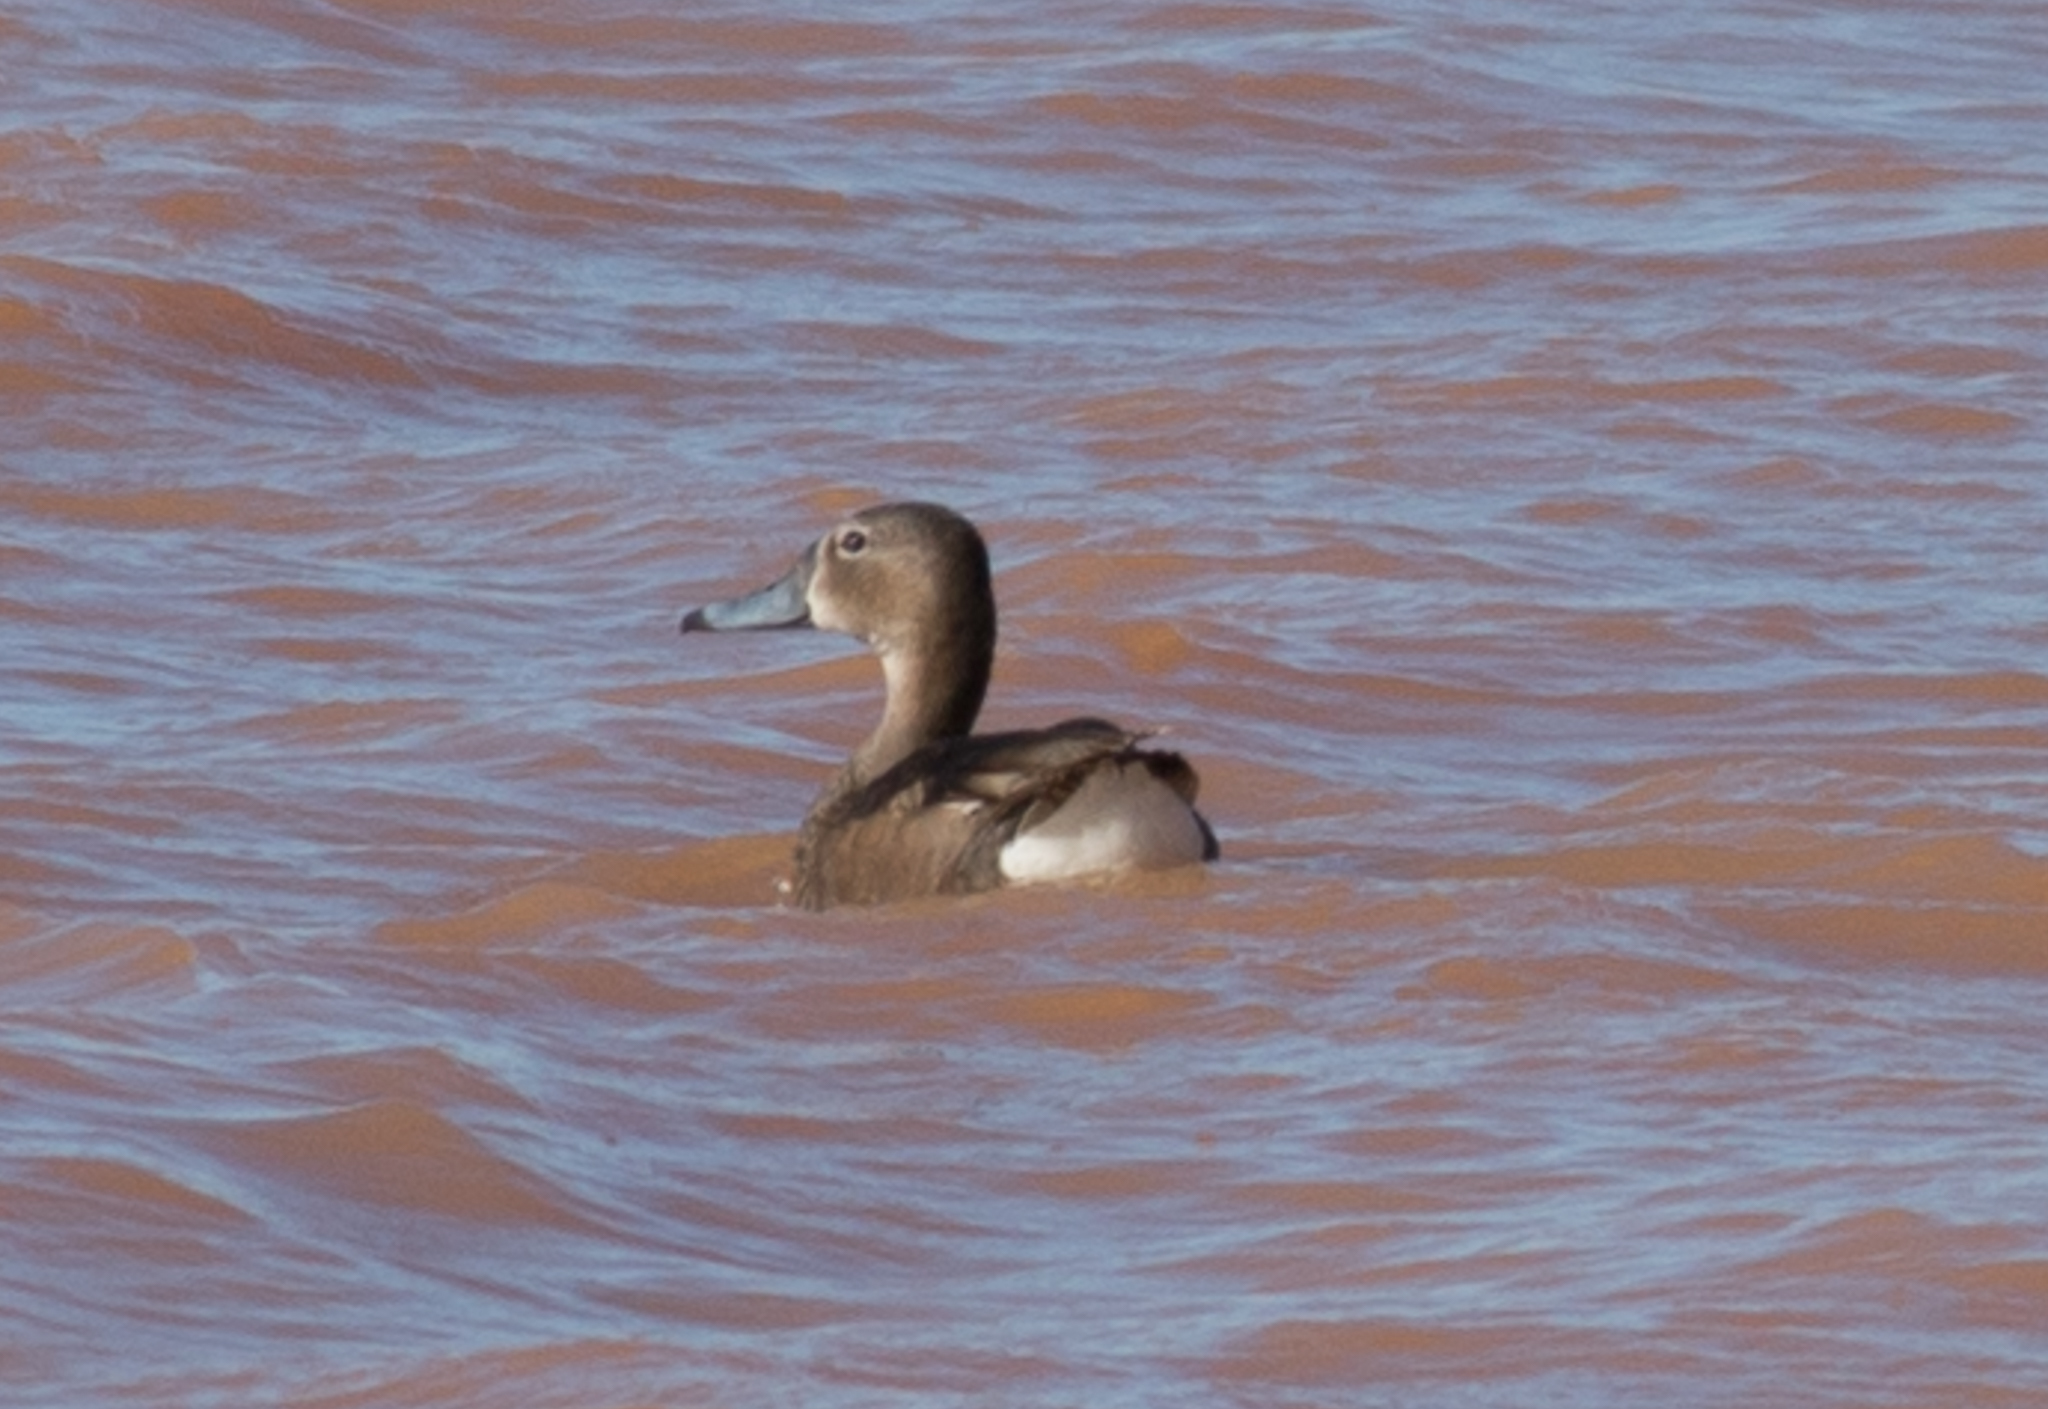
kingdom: Animalia
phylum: Chordata
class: Aves
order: Anseriformes
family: Anatidae
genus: Netta
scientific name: Netta peposaca
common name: Rosy-billed pochard
